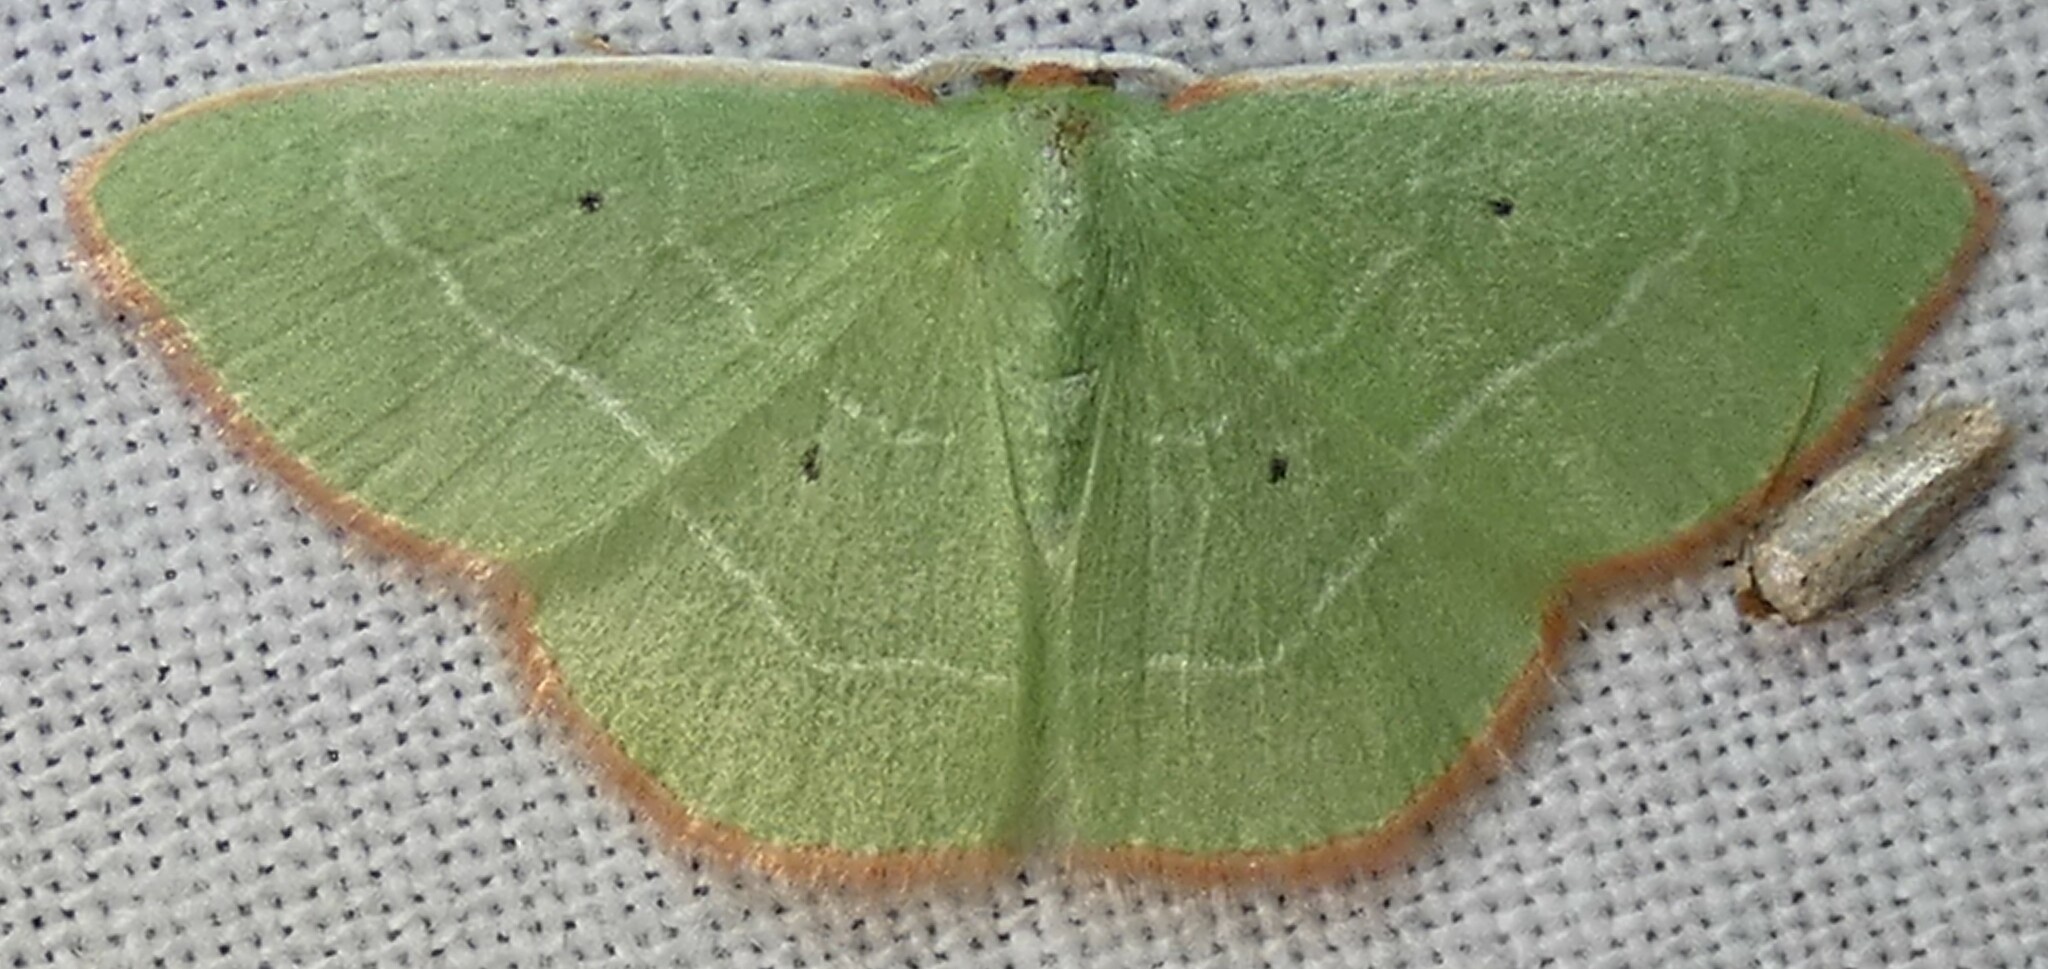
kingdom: Animalia
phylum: Arthropoda
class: Insecta
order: Lepidoptera
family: Geometridae
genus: Nemoria
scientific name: Nemoria extremaria
